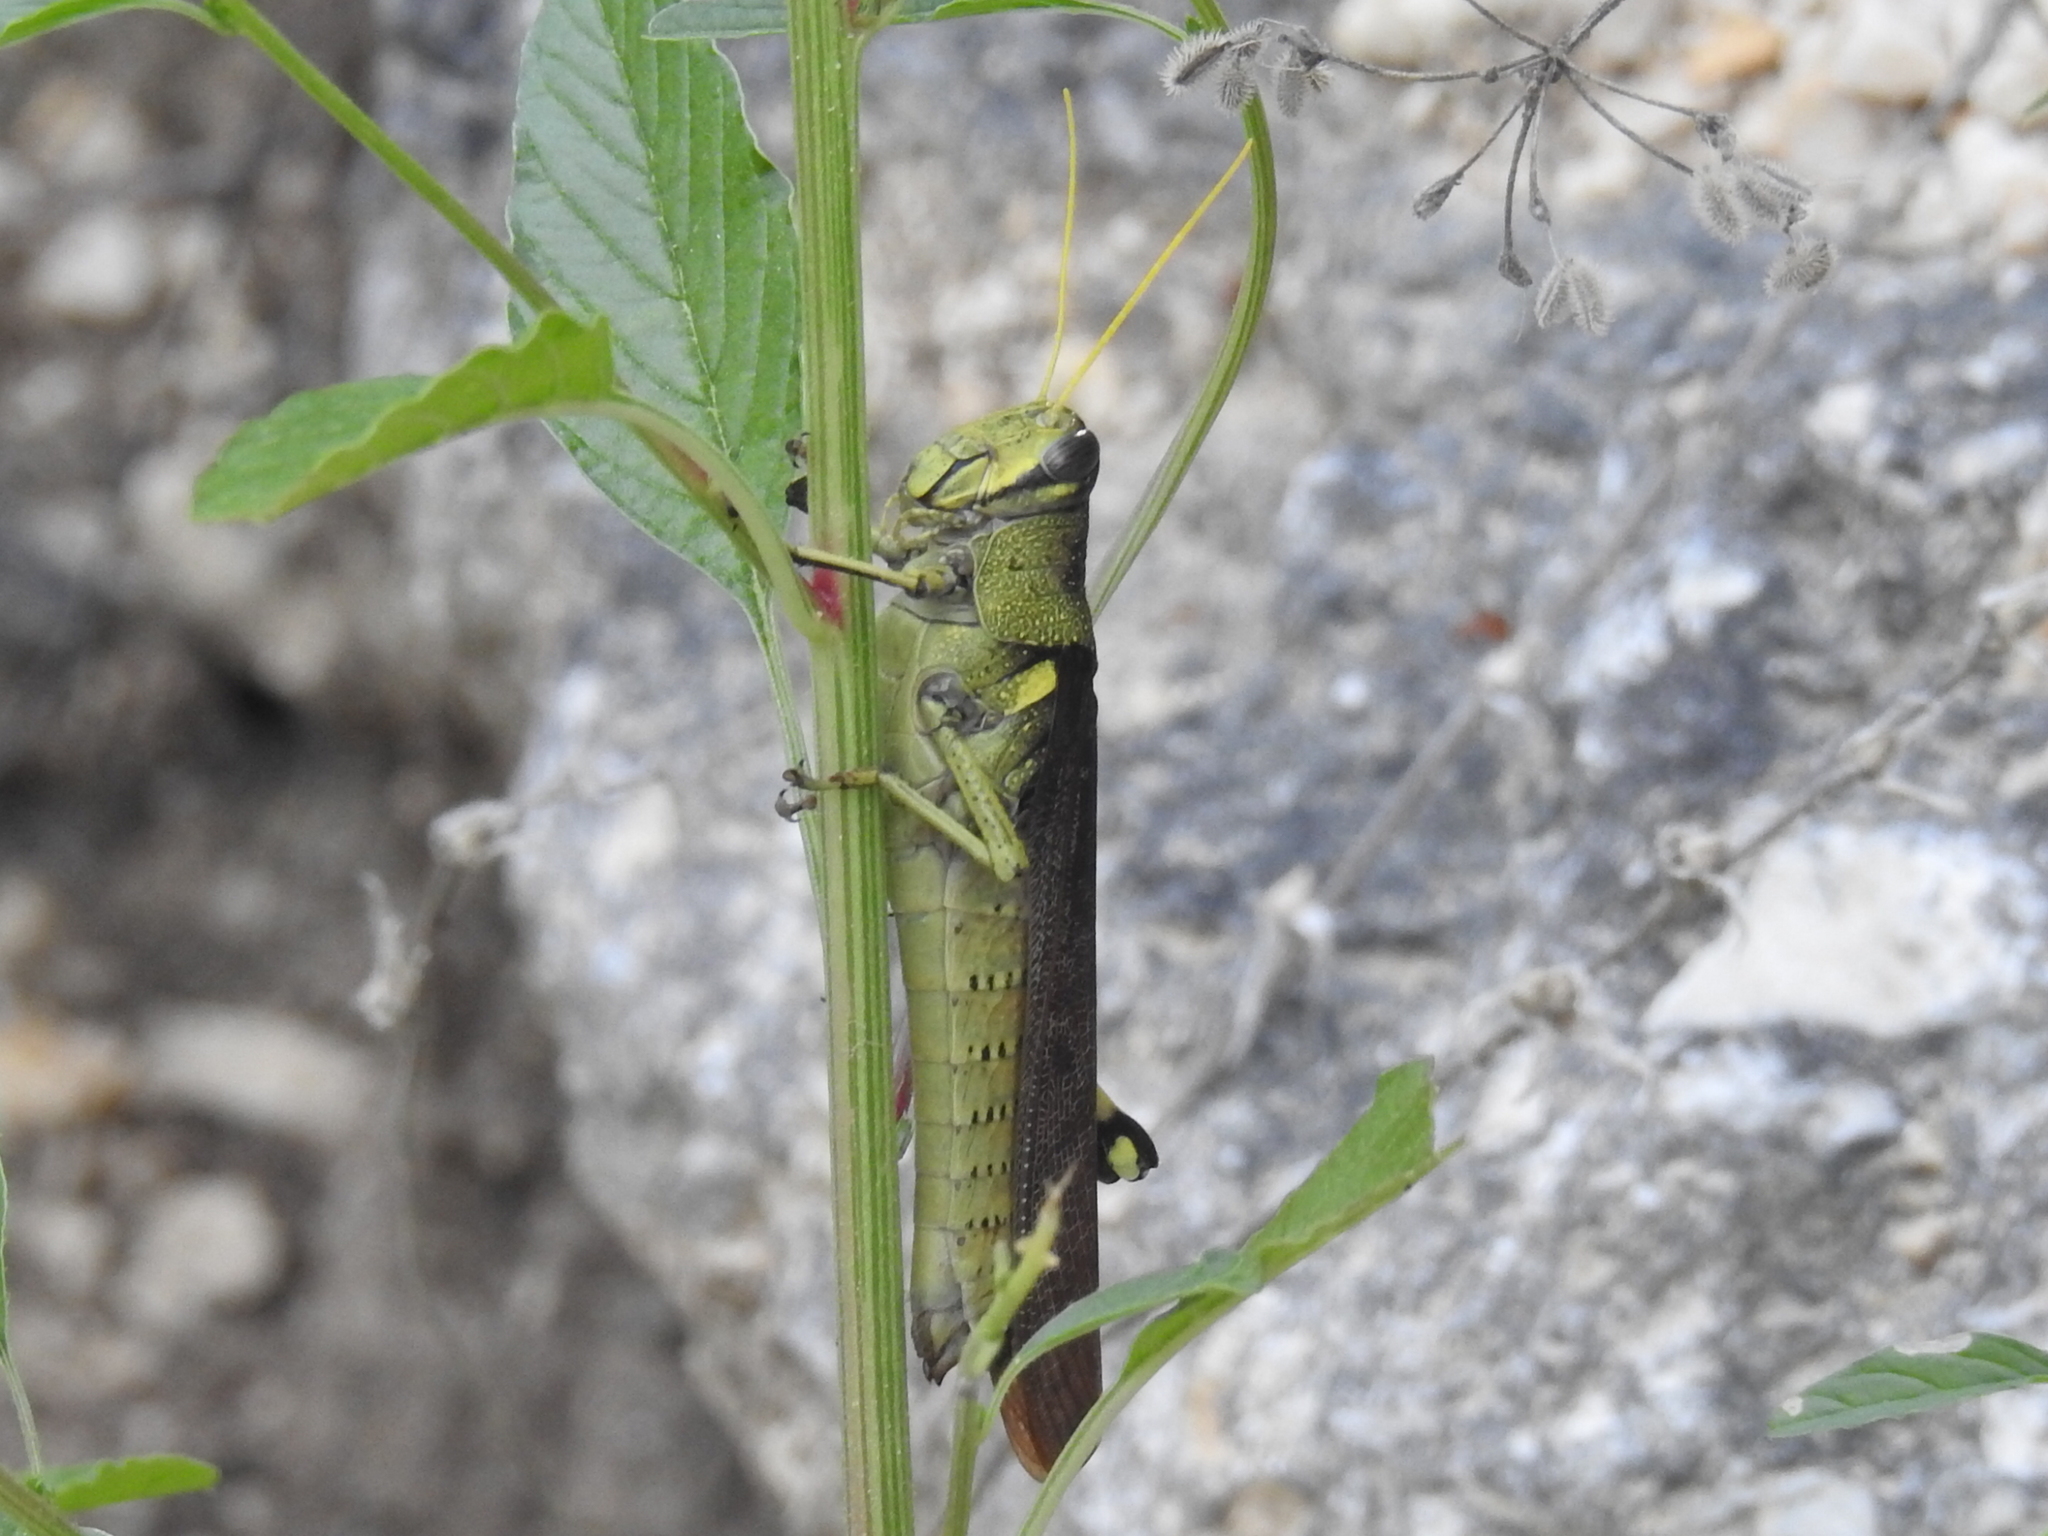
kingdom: Animalia
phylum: Arthropoda
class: Insecta
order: Orthoptera
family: Acrididae
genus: Schistocerca
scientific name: Schistocerca obscura
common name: Obscure bird grasshopper
